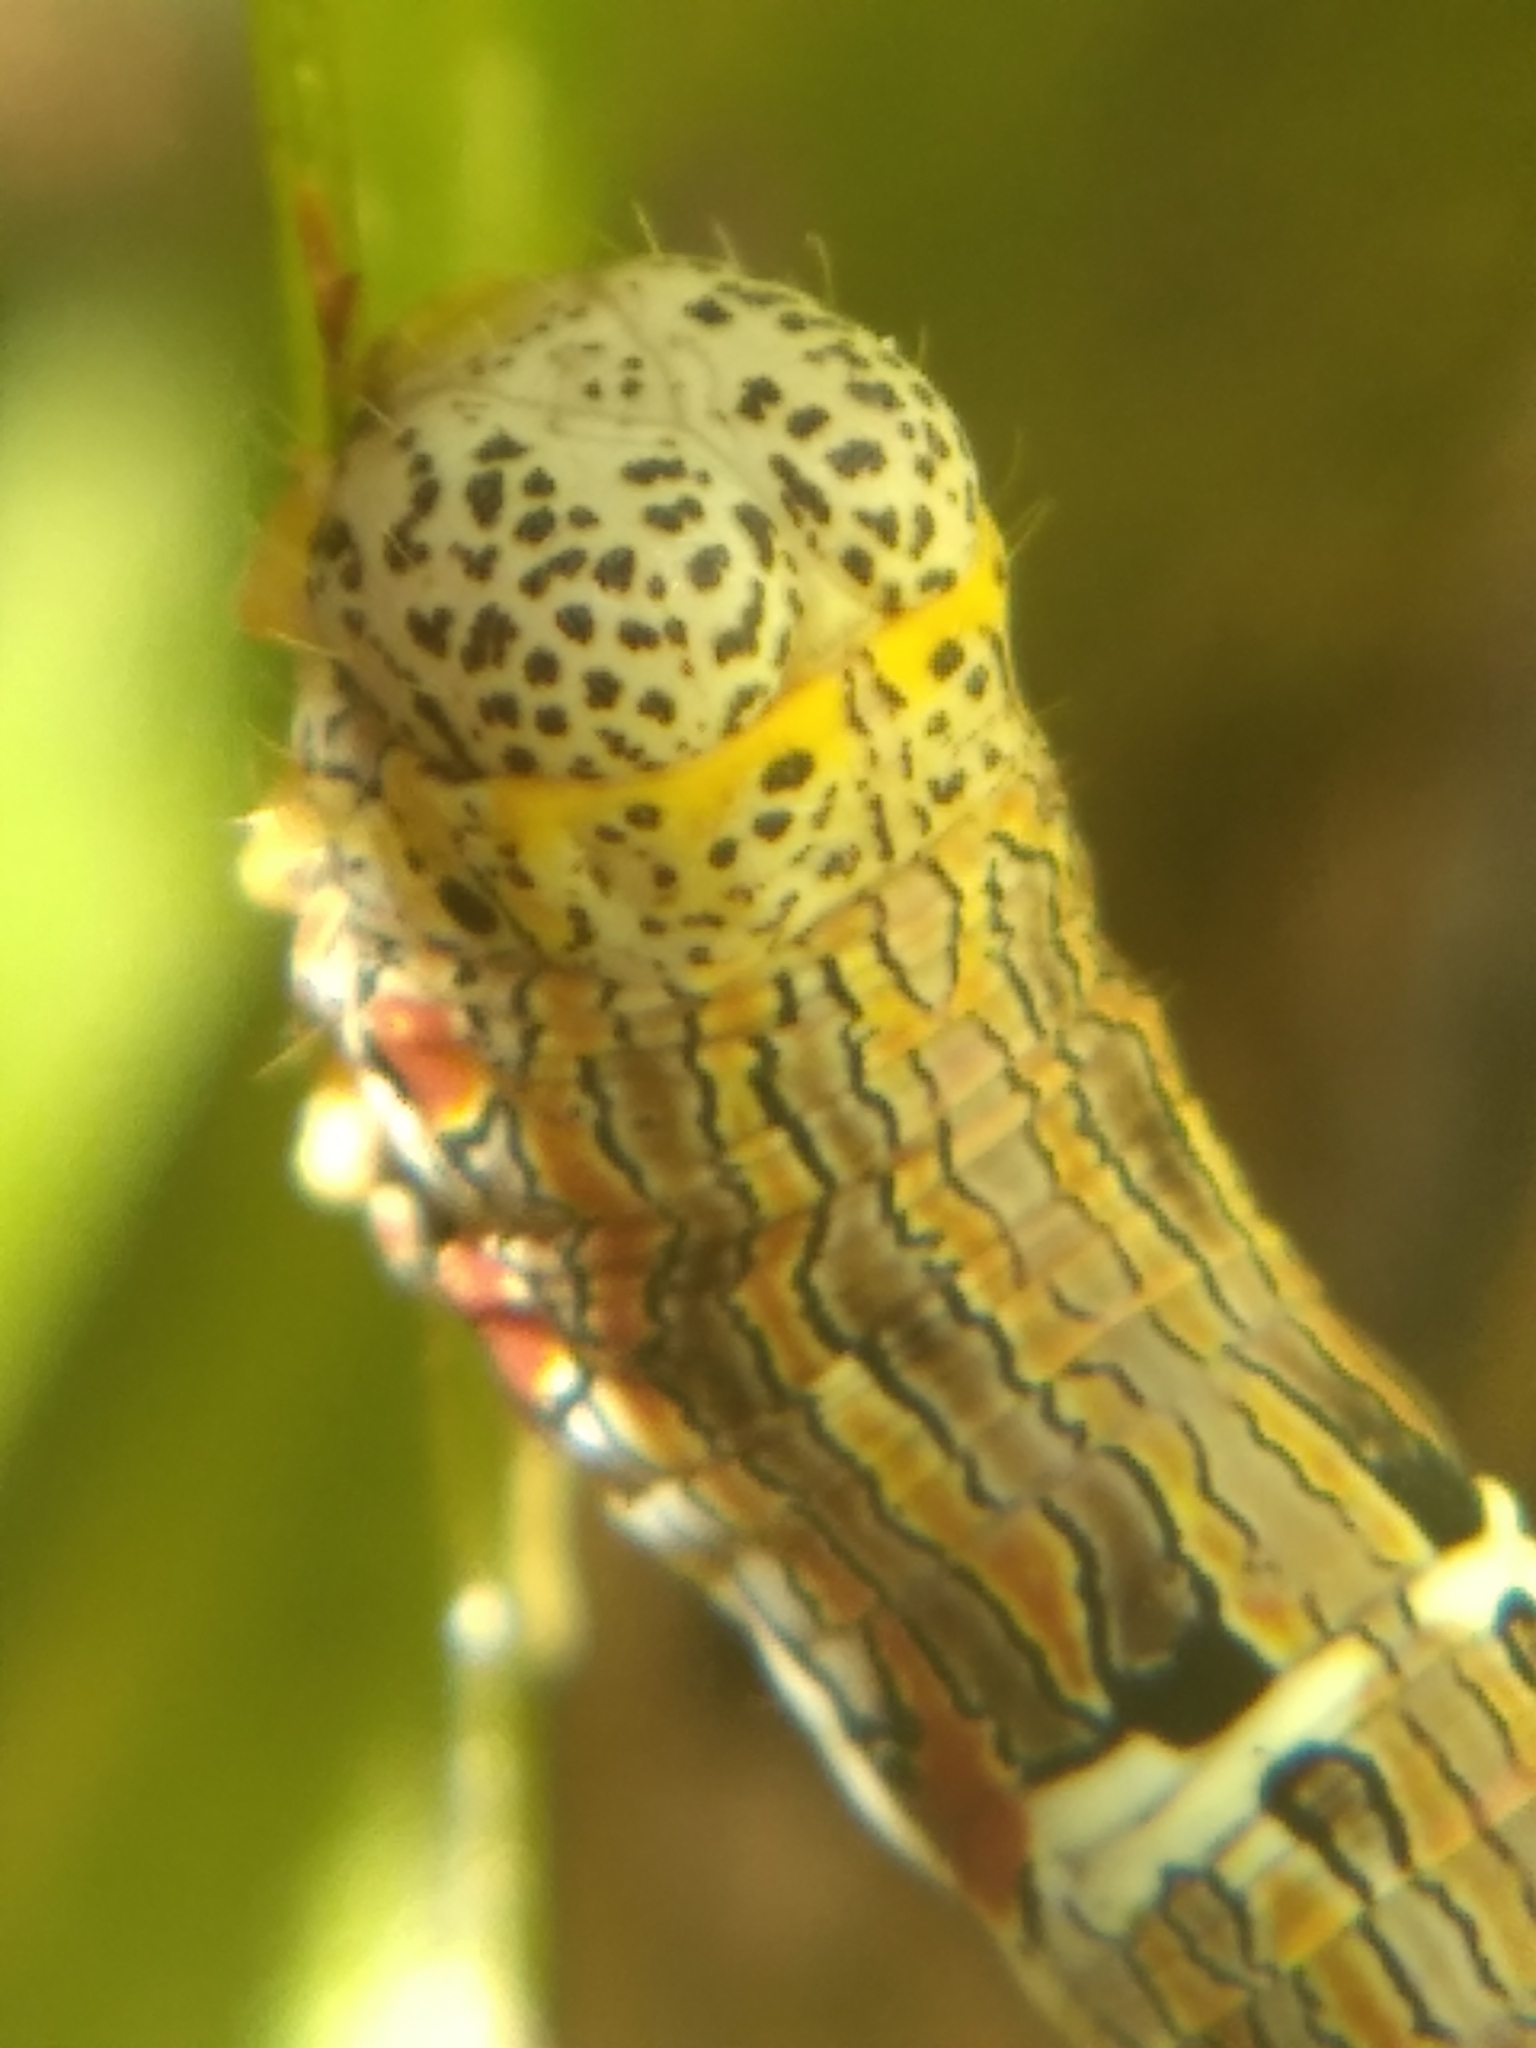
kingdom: Animalia
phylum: Arthropoda
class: Insecta
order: Lepidoptera
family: Geometridae
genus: Lycia
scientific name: Lycia ypsilon
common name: Wooly gray
